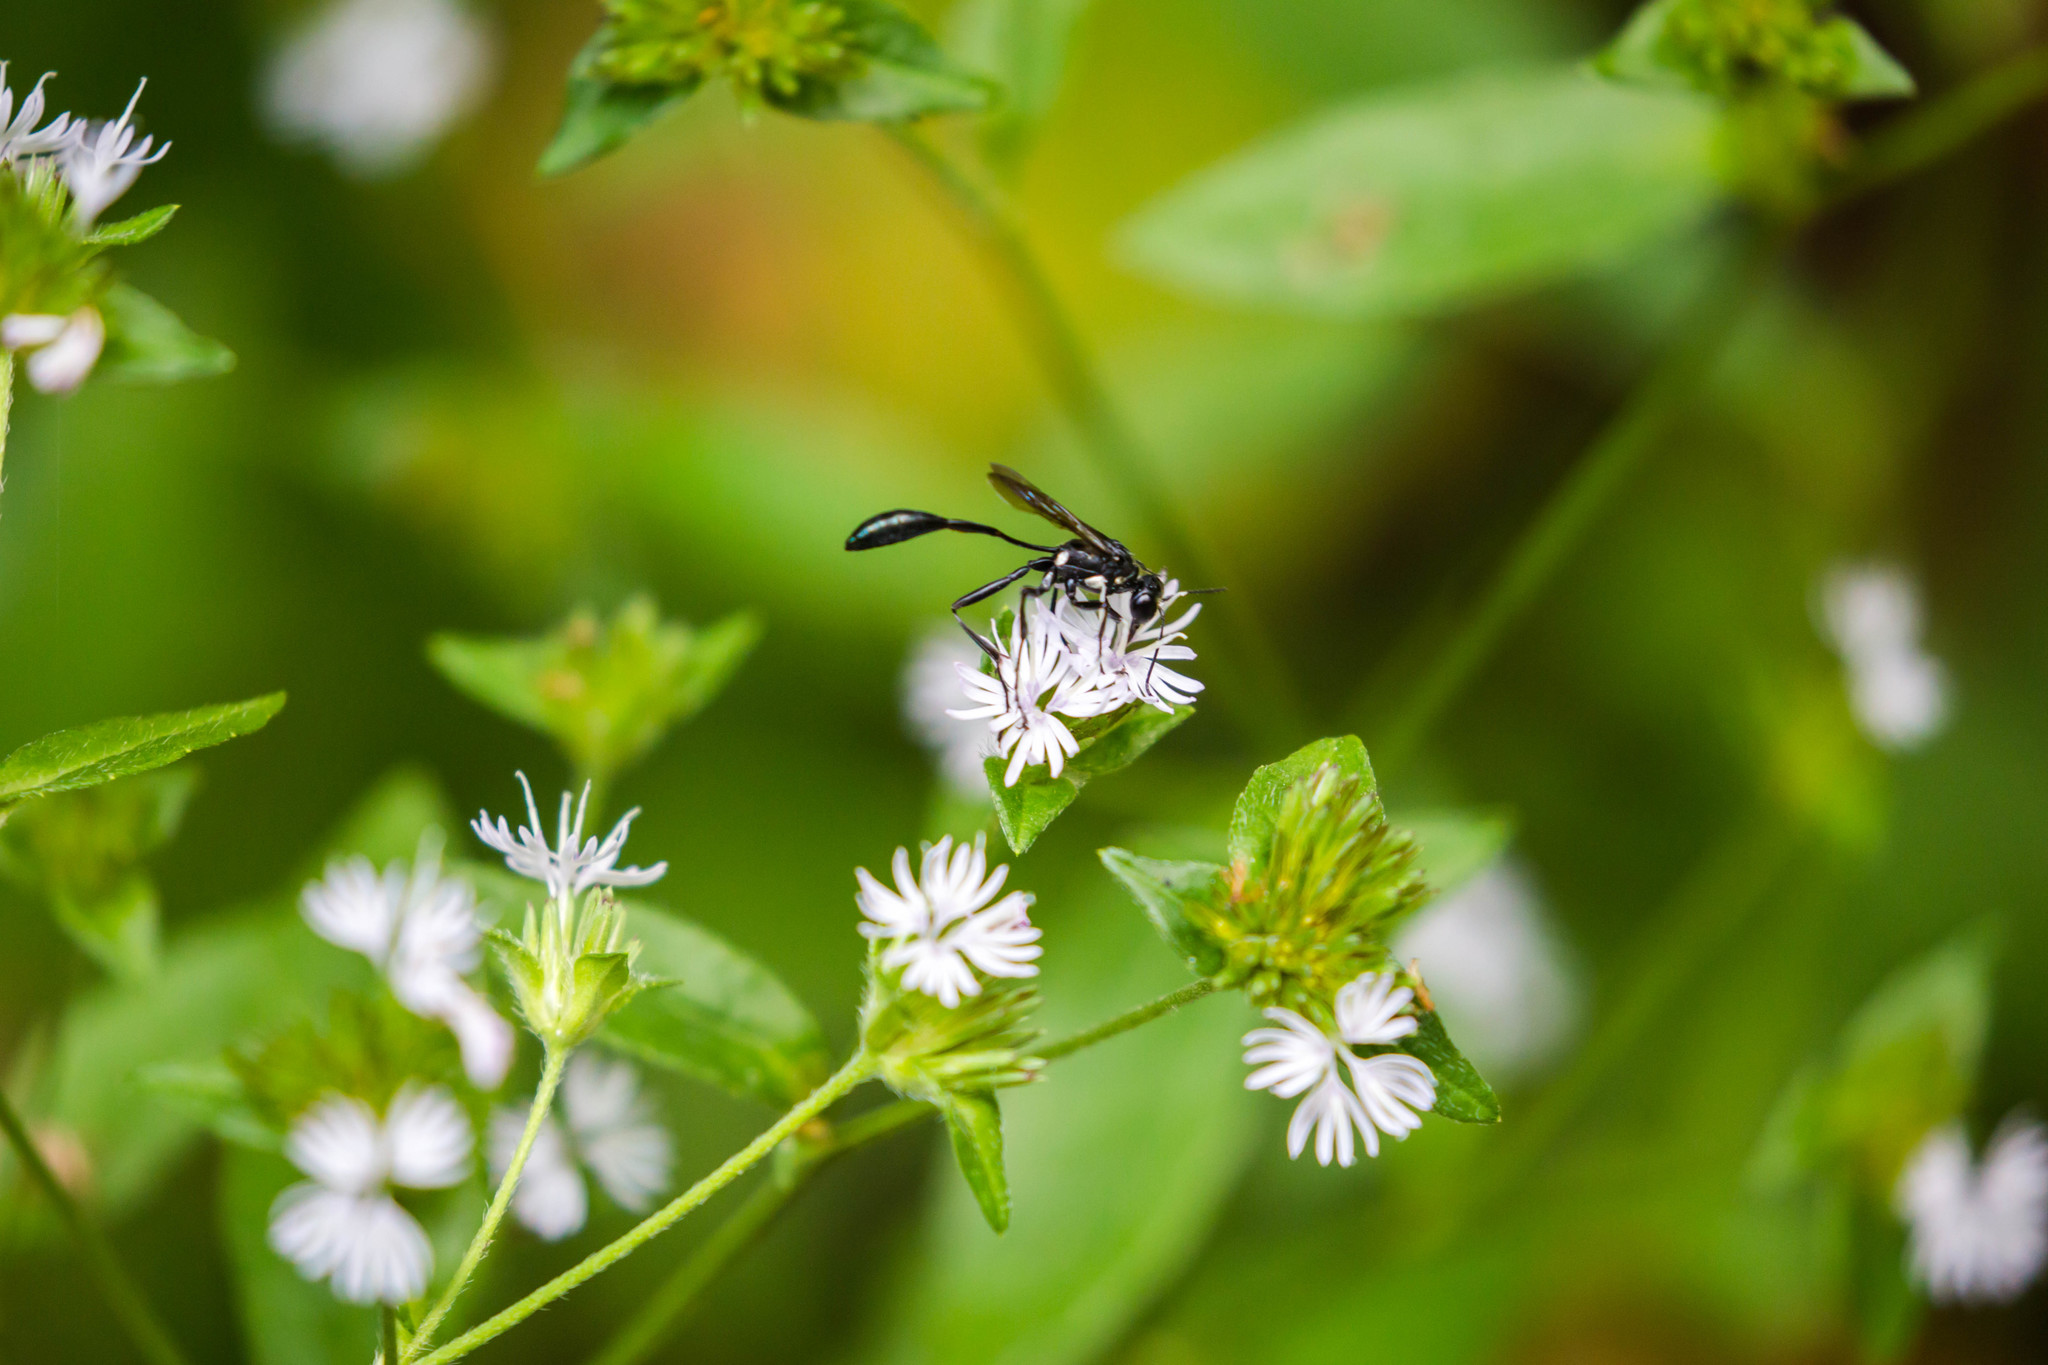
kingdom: Animalia
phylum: Arthropoda
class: Insecta
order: Hymenoptera
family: Sphecidae
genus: Eremnophila
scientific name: Eremnophila aureonotata
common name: Gold-marked thread-waisted wasp
